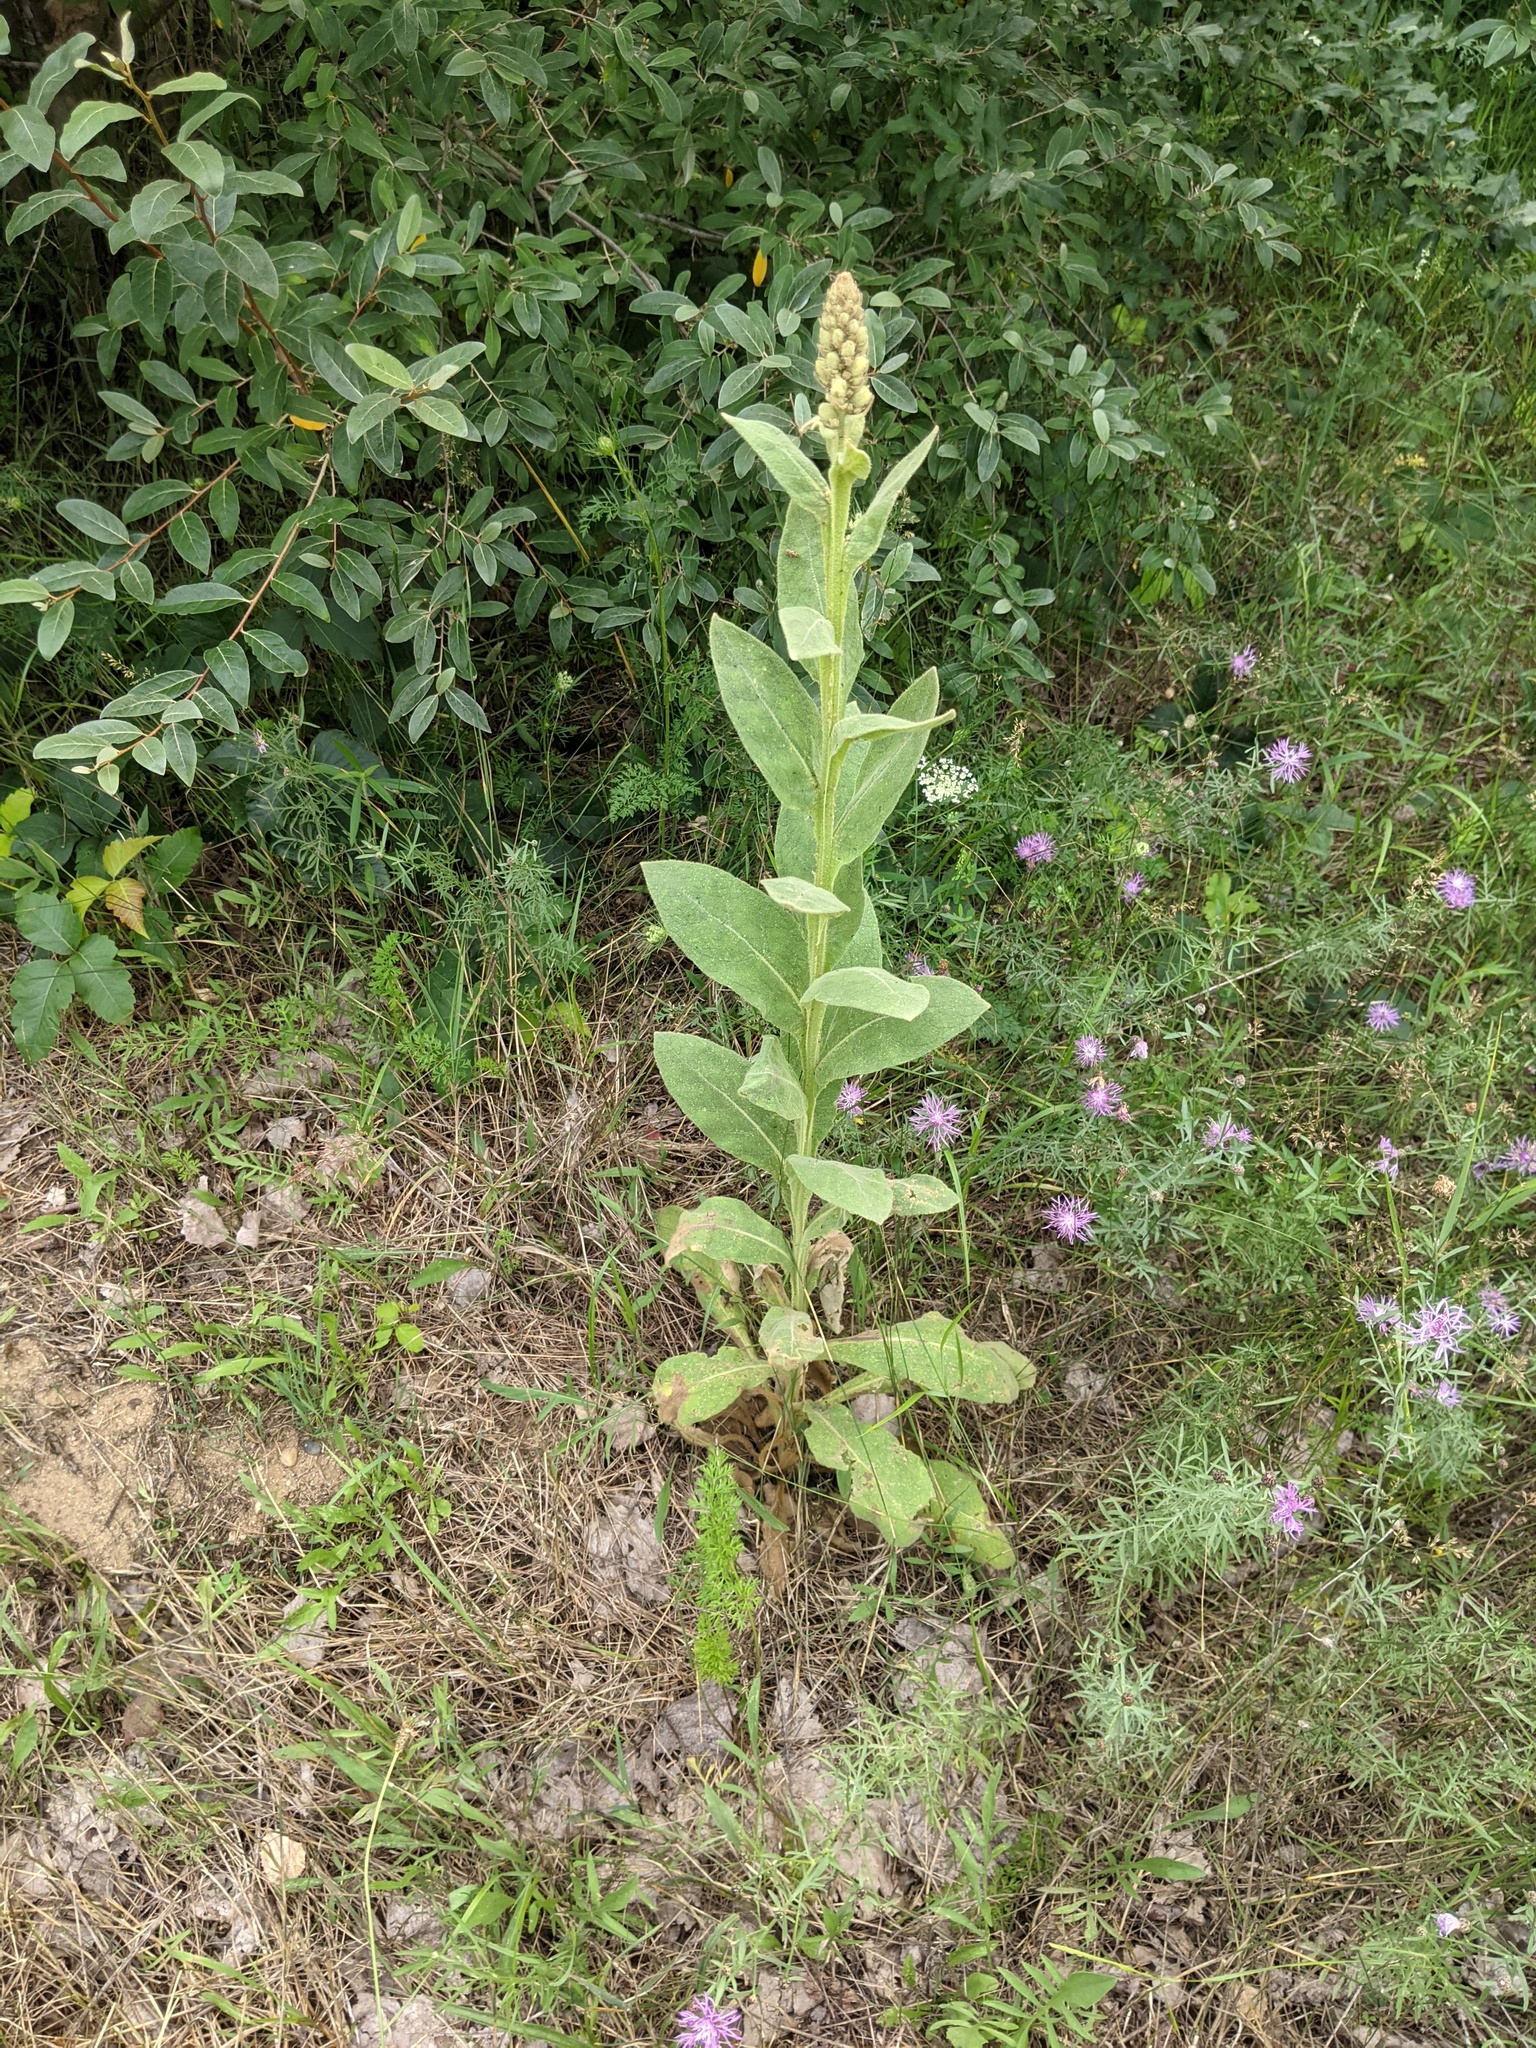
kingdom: Plantae
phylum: Tracheophyta
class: Magnoliopsida
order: Lamiales
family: Scrophulariaceae
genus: Verbascum
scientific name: Verbascum thapsus
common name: Common mullein
